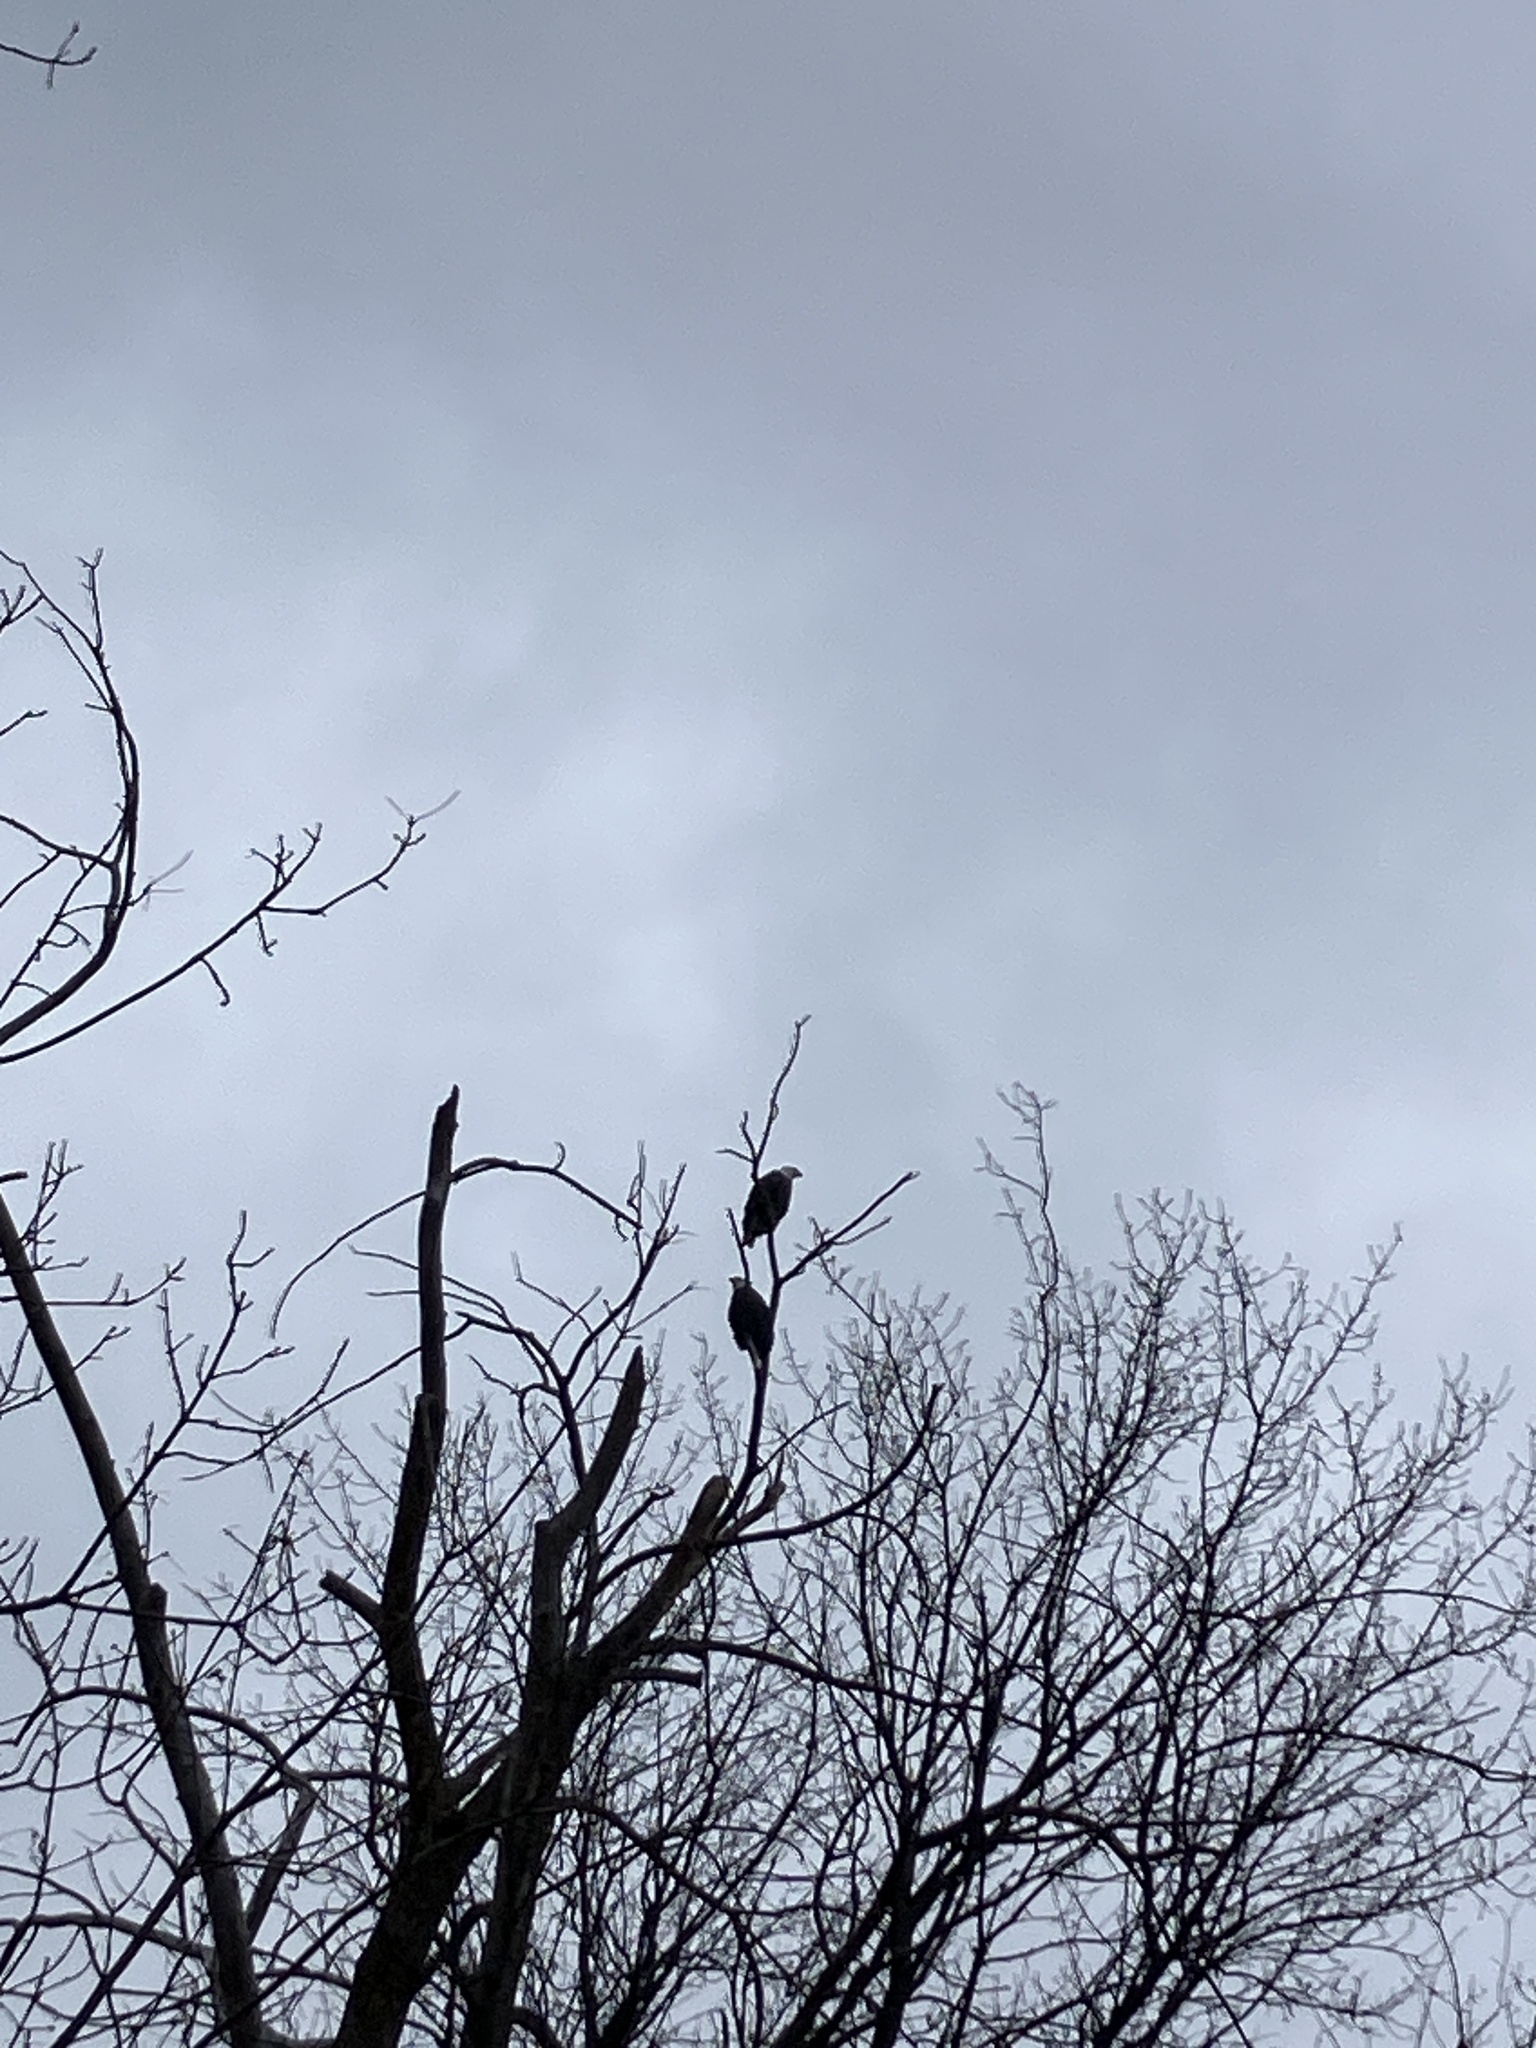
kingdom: Animalia
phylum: Chordata
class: Aves
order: Accipitriformes
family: Accipitridae
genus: Haliaeetus
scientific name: Haliaeetus leucocephalus
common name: Bald eagle
